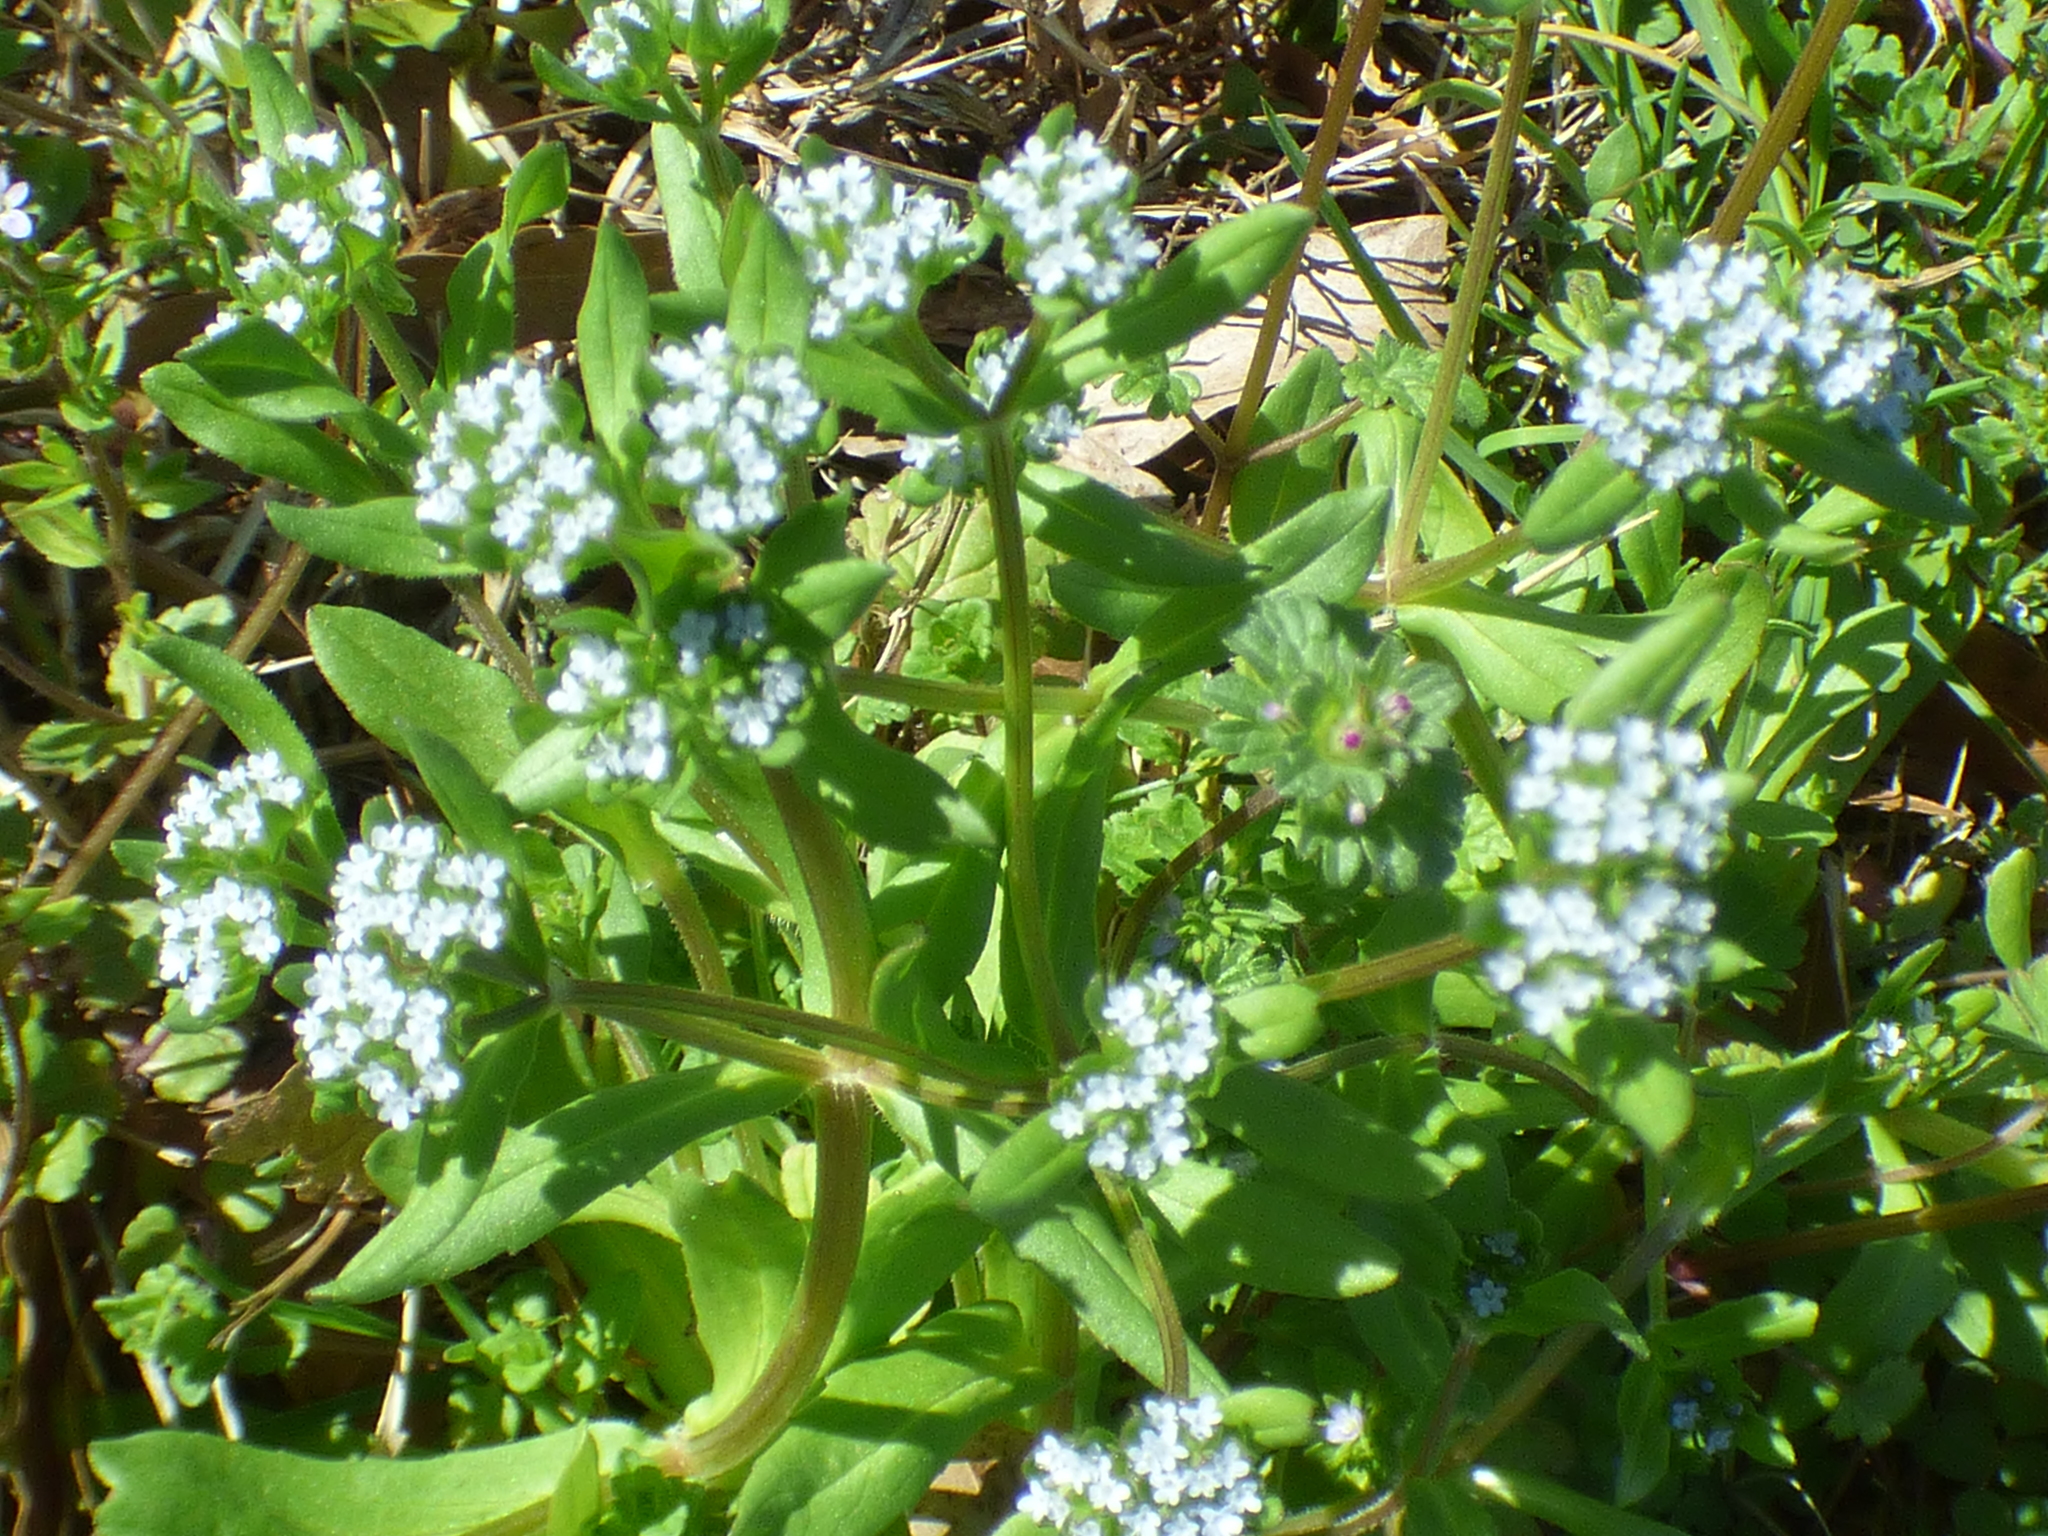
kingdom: Plantae
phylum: Tracheophyta
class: Magnoliopsida
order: Dipsacales
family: Caprifoliaceae
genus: Valerianella
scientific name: Valerianella locusta
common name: Common cornsalad
